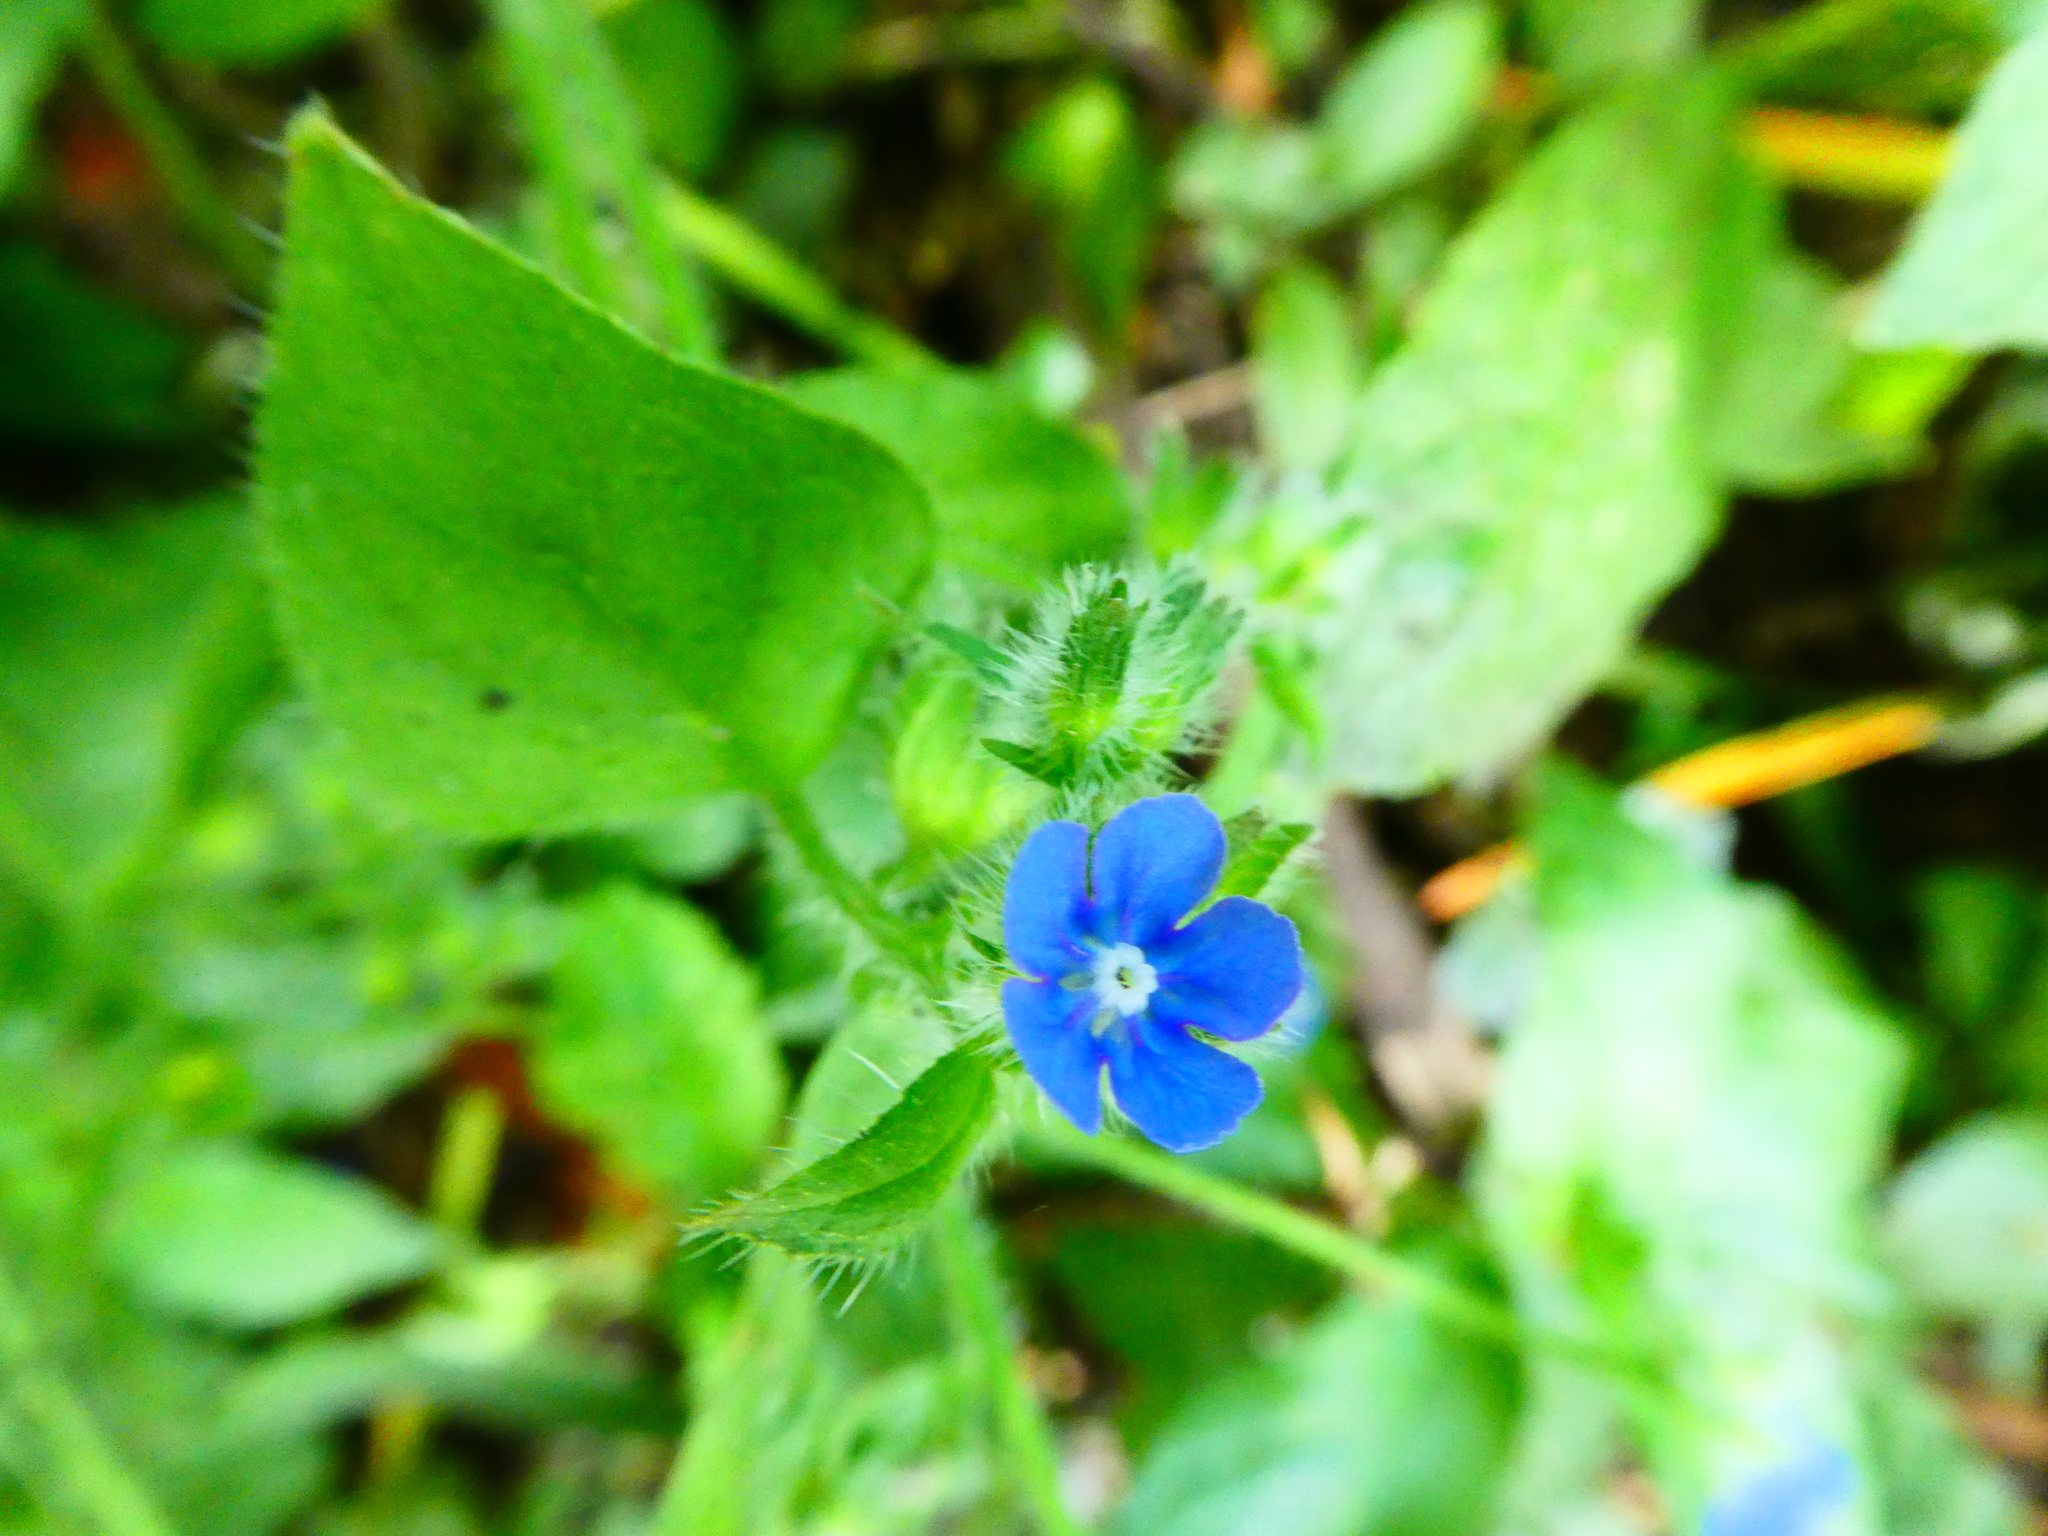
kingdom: Plantae
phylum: Tracheophyta
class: Magnoliopsida
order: Boraginales
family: Boraginaceae
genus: Pentaglottis
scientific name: Pentaglottis sempervirens
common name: Green alkanet
